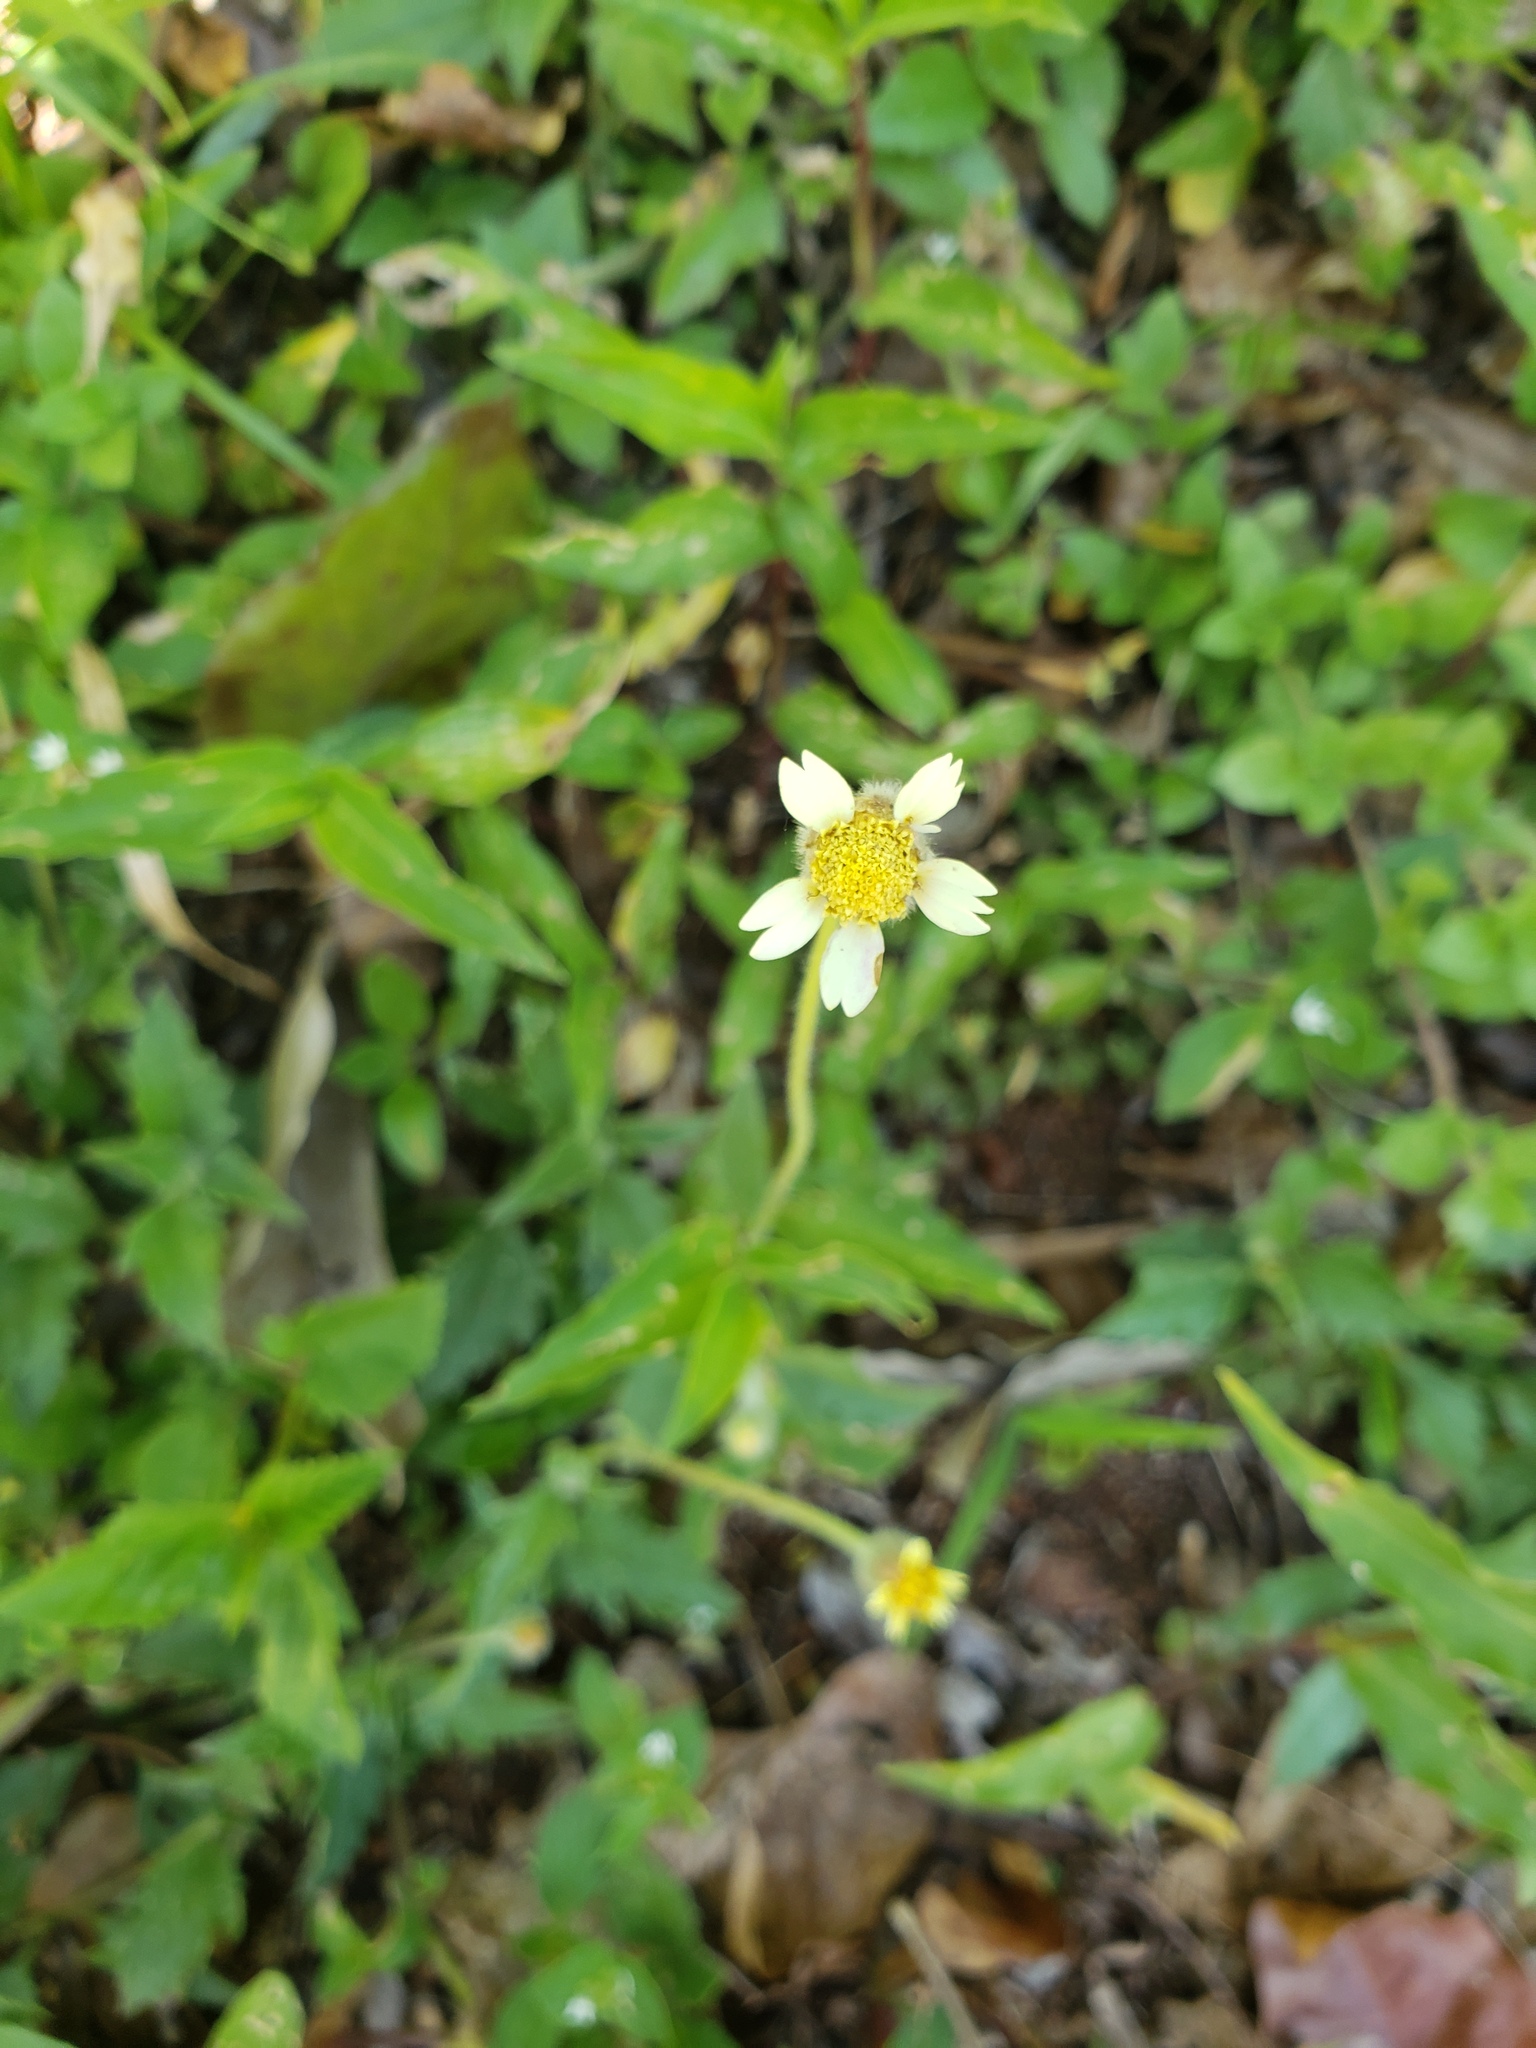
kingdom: Plantae
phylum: Tracheophyta
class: Magnoliopsida
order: Asterales
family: Asteraceae
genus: Tridax
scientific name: Tridax procumbens
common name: Coatbuttons
